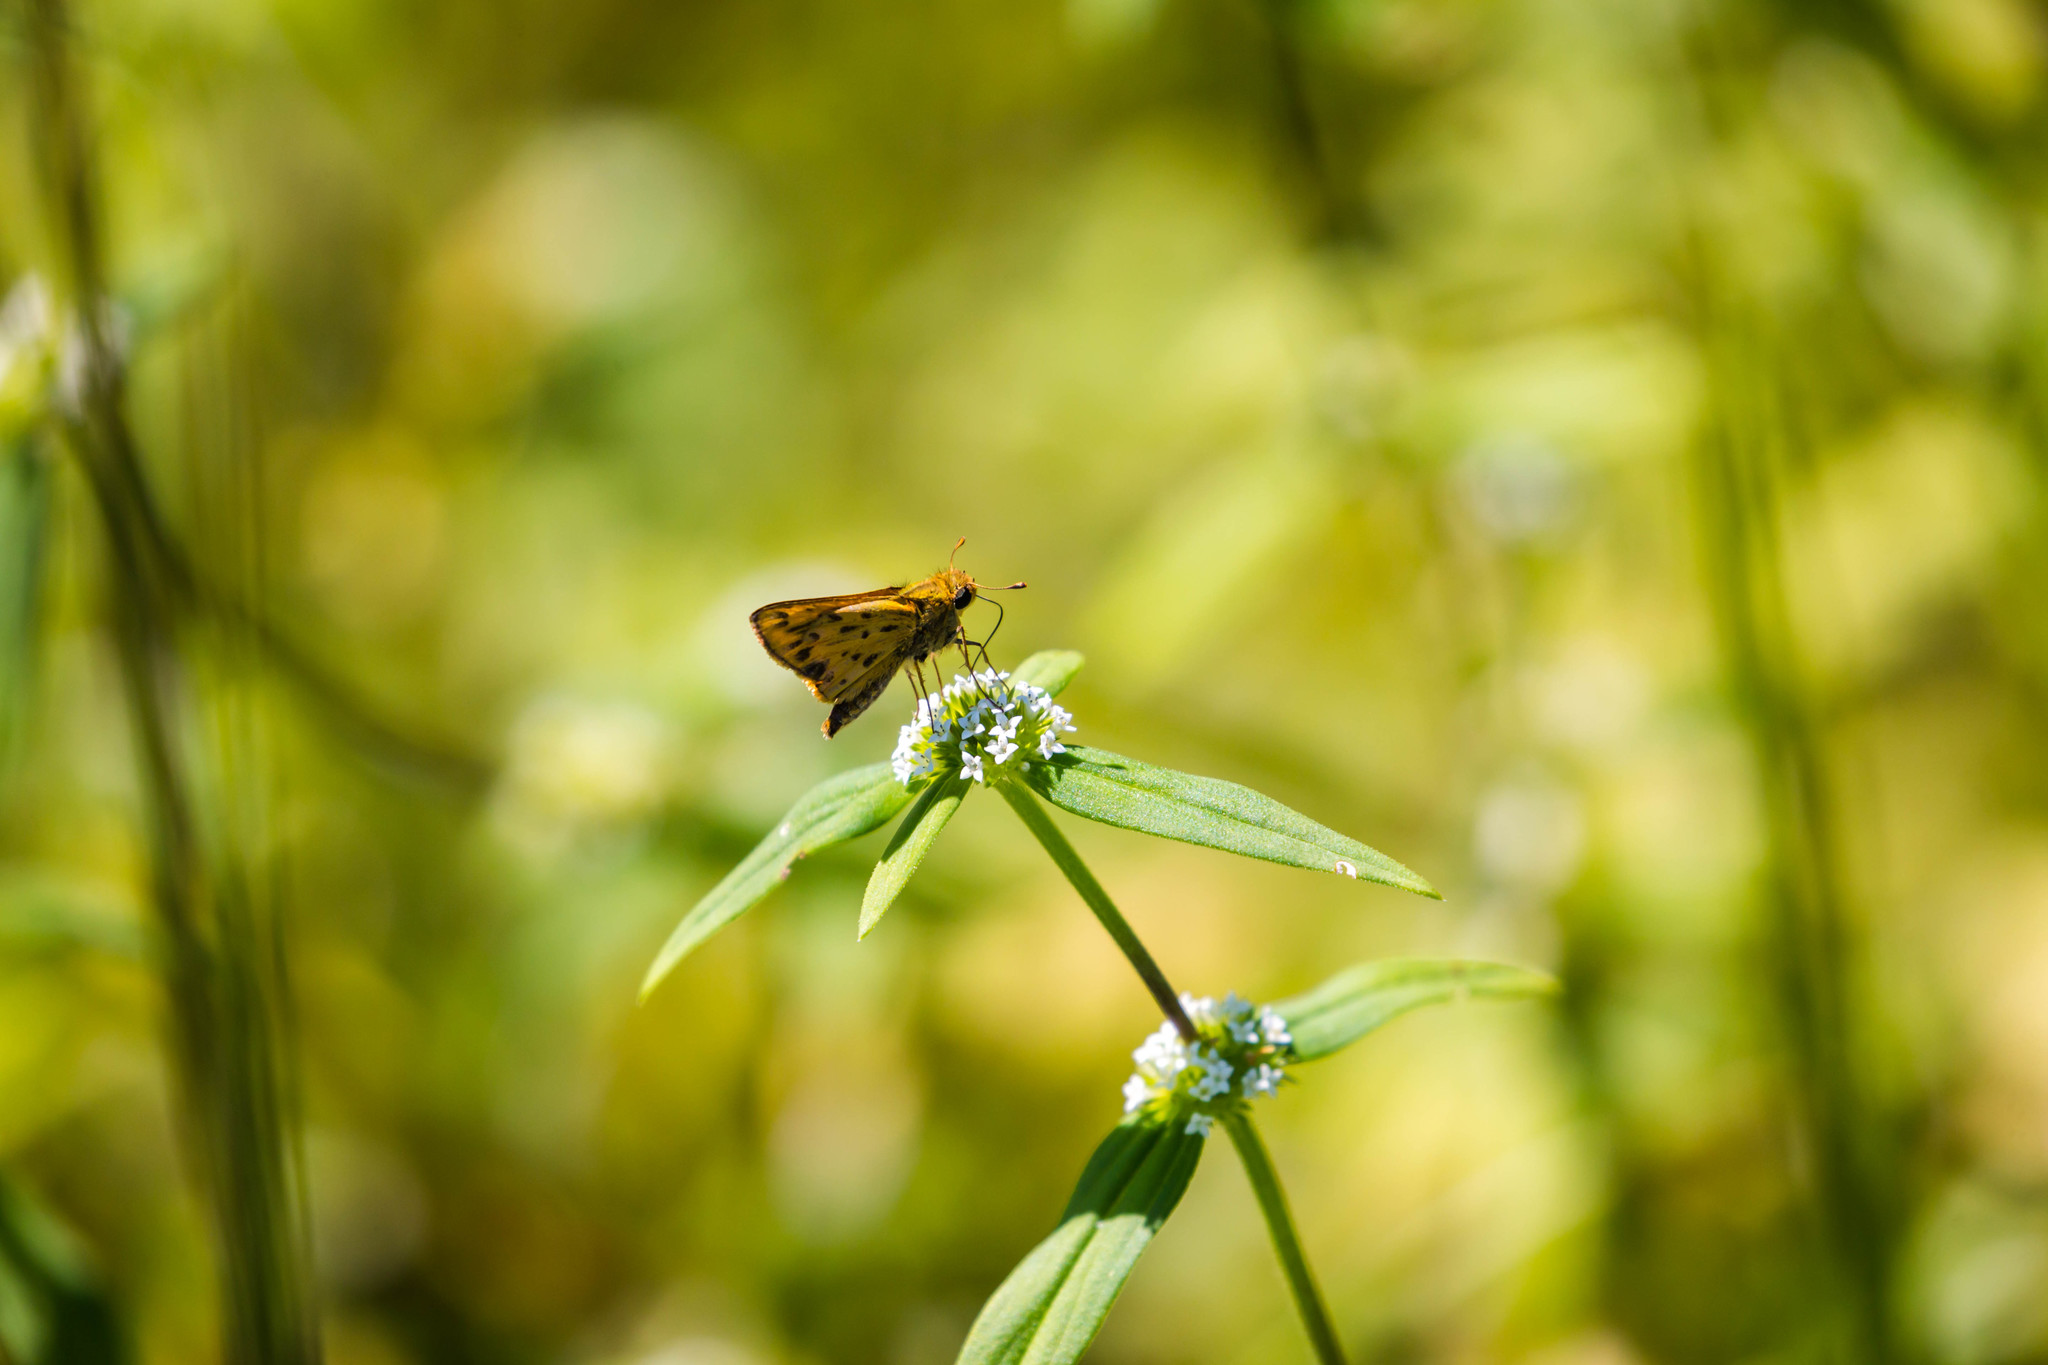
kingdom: Animalia
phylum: Arthropoda
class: Insecta
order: Lepidoptera
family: Hesperiidae
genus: Polites
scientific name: Polites vibex
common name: Whirlabout
